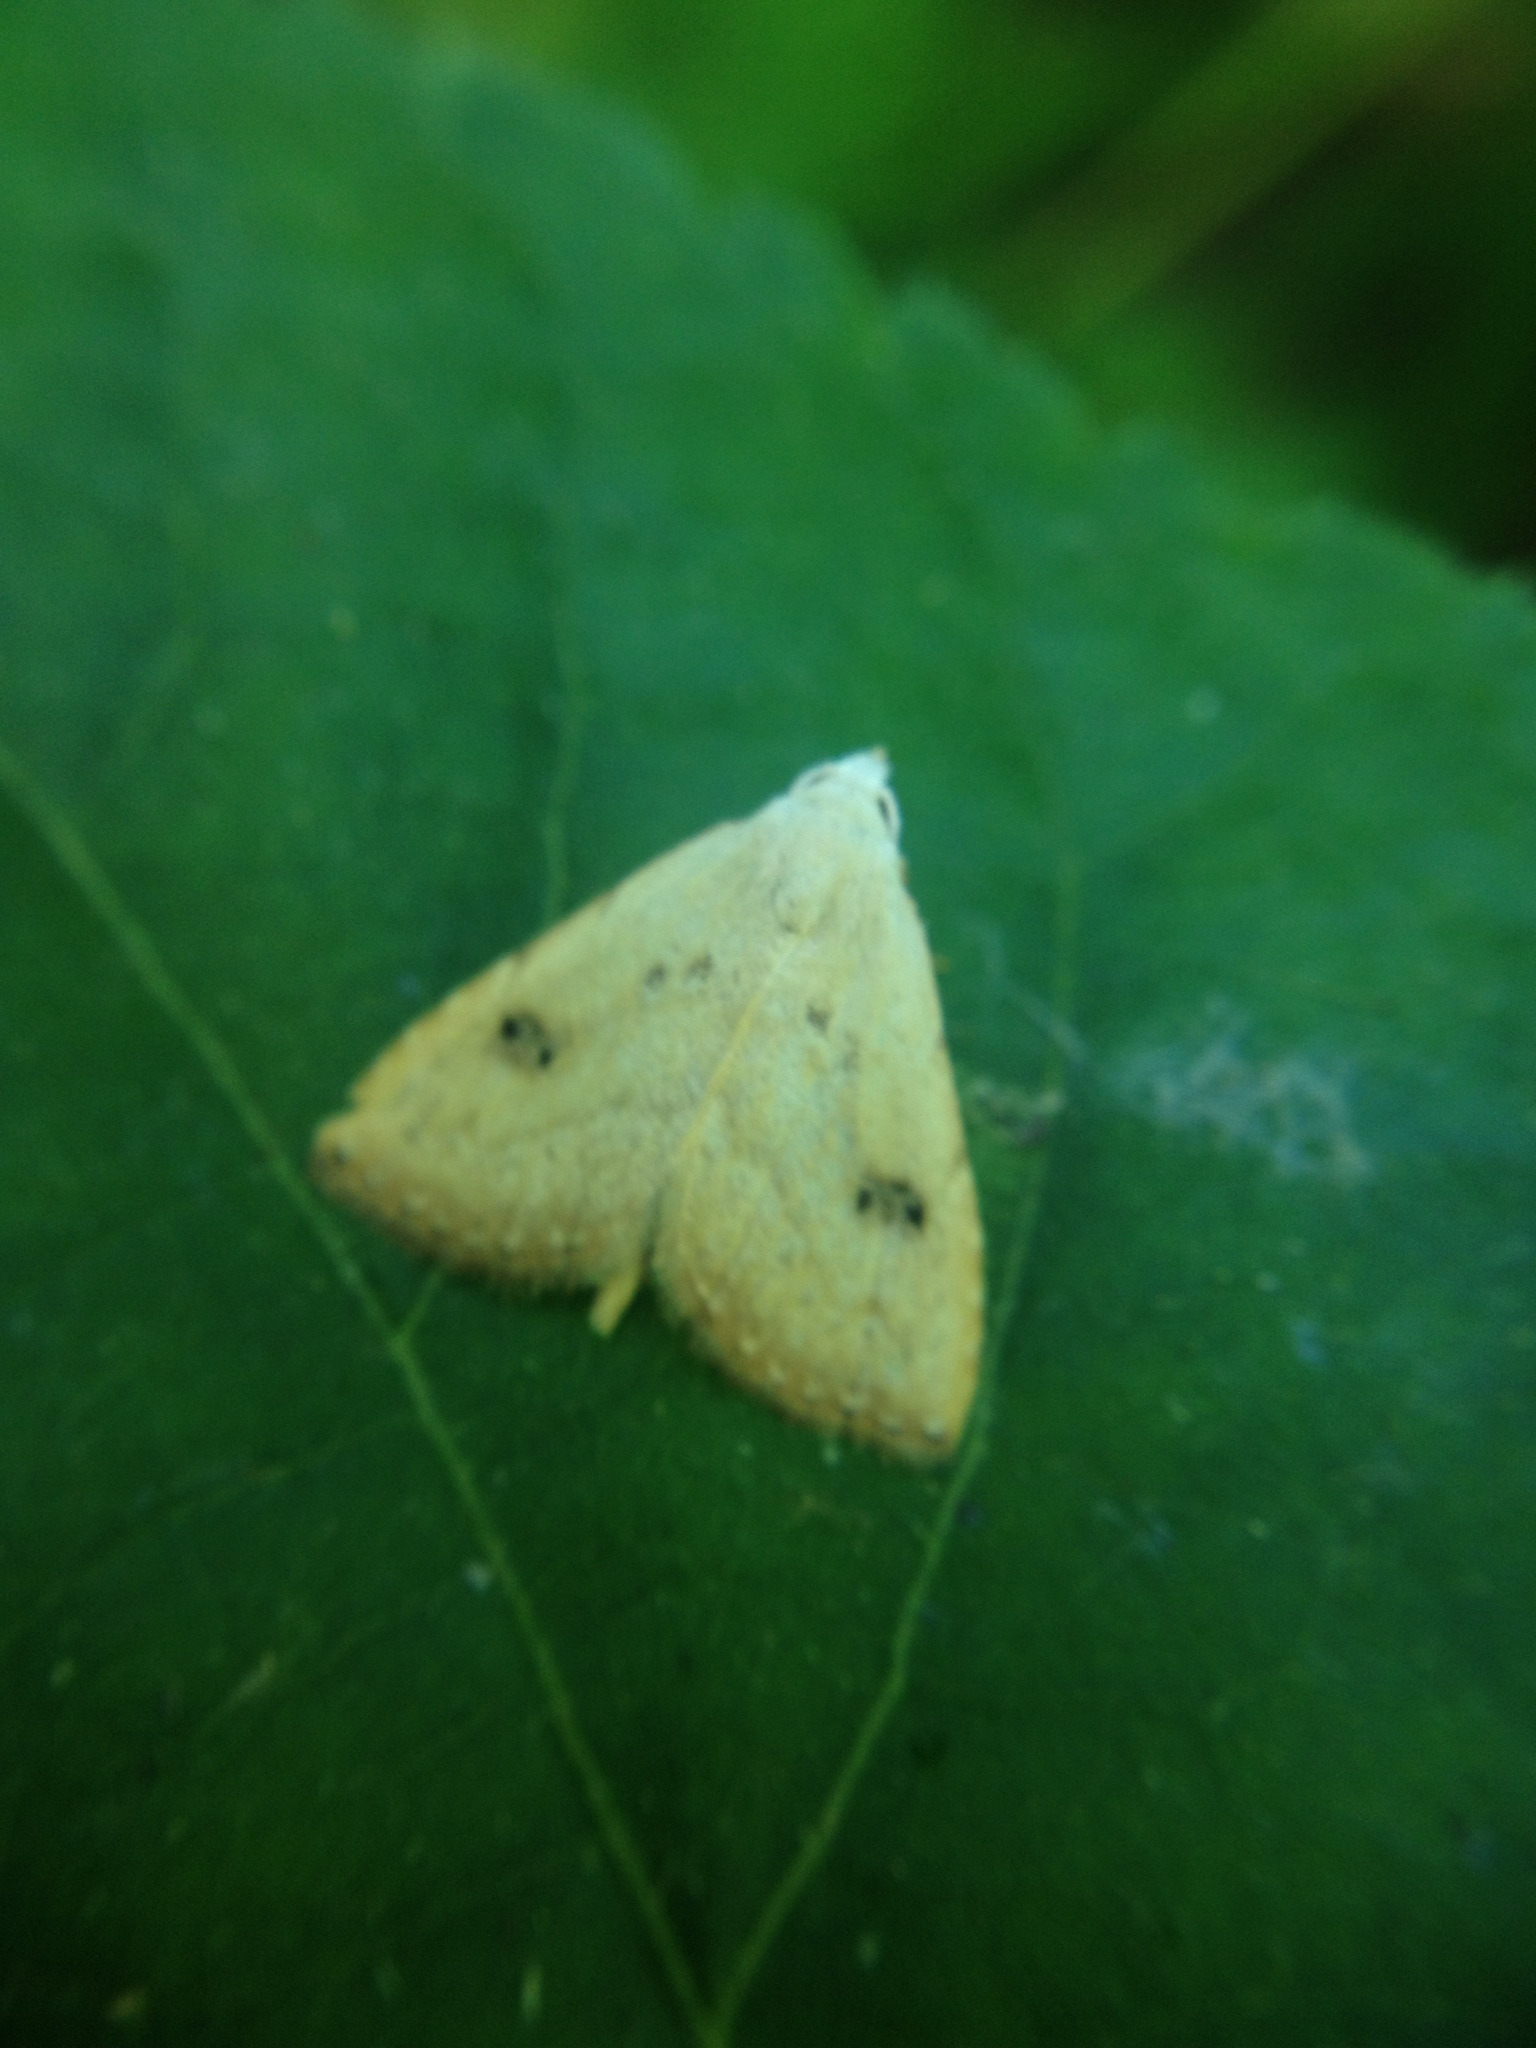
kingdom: Animalia
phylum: Arthropoda
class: Insecta
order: Lepidoptera
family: Erebidae
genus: Rivula
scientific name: Rivula sericealis
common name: Straw dot
